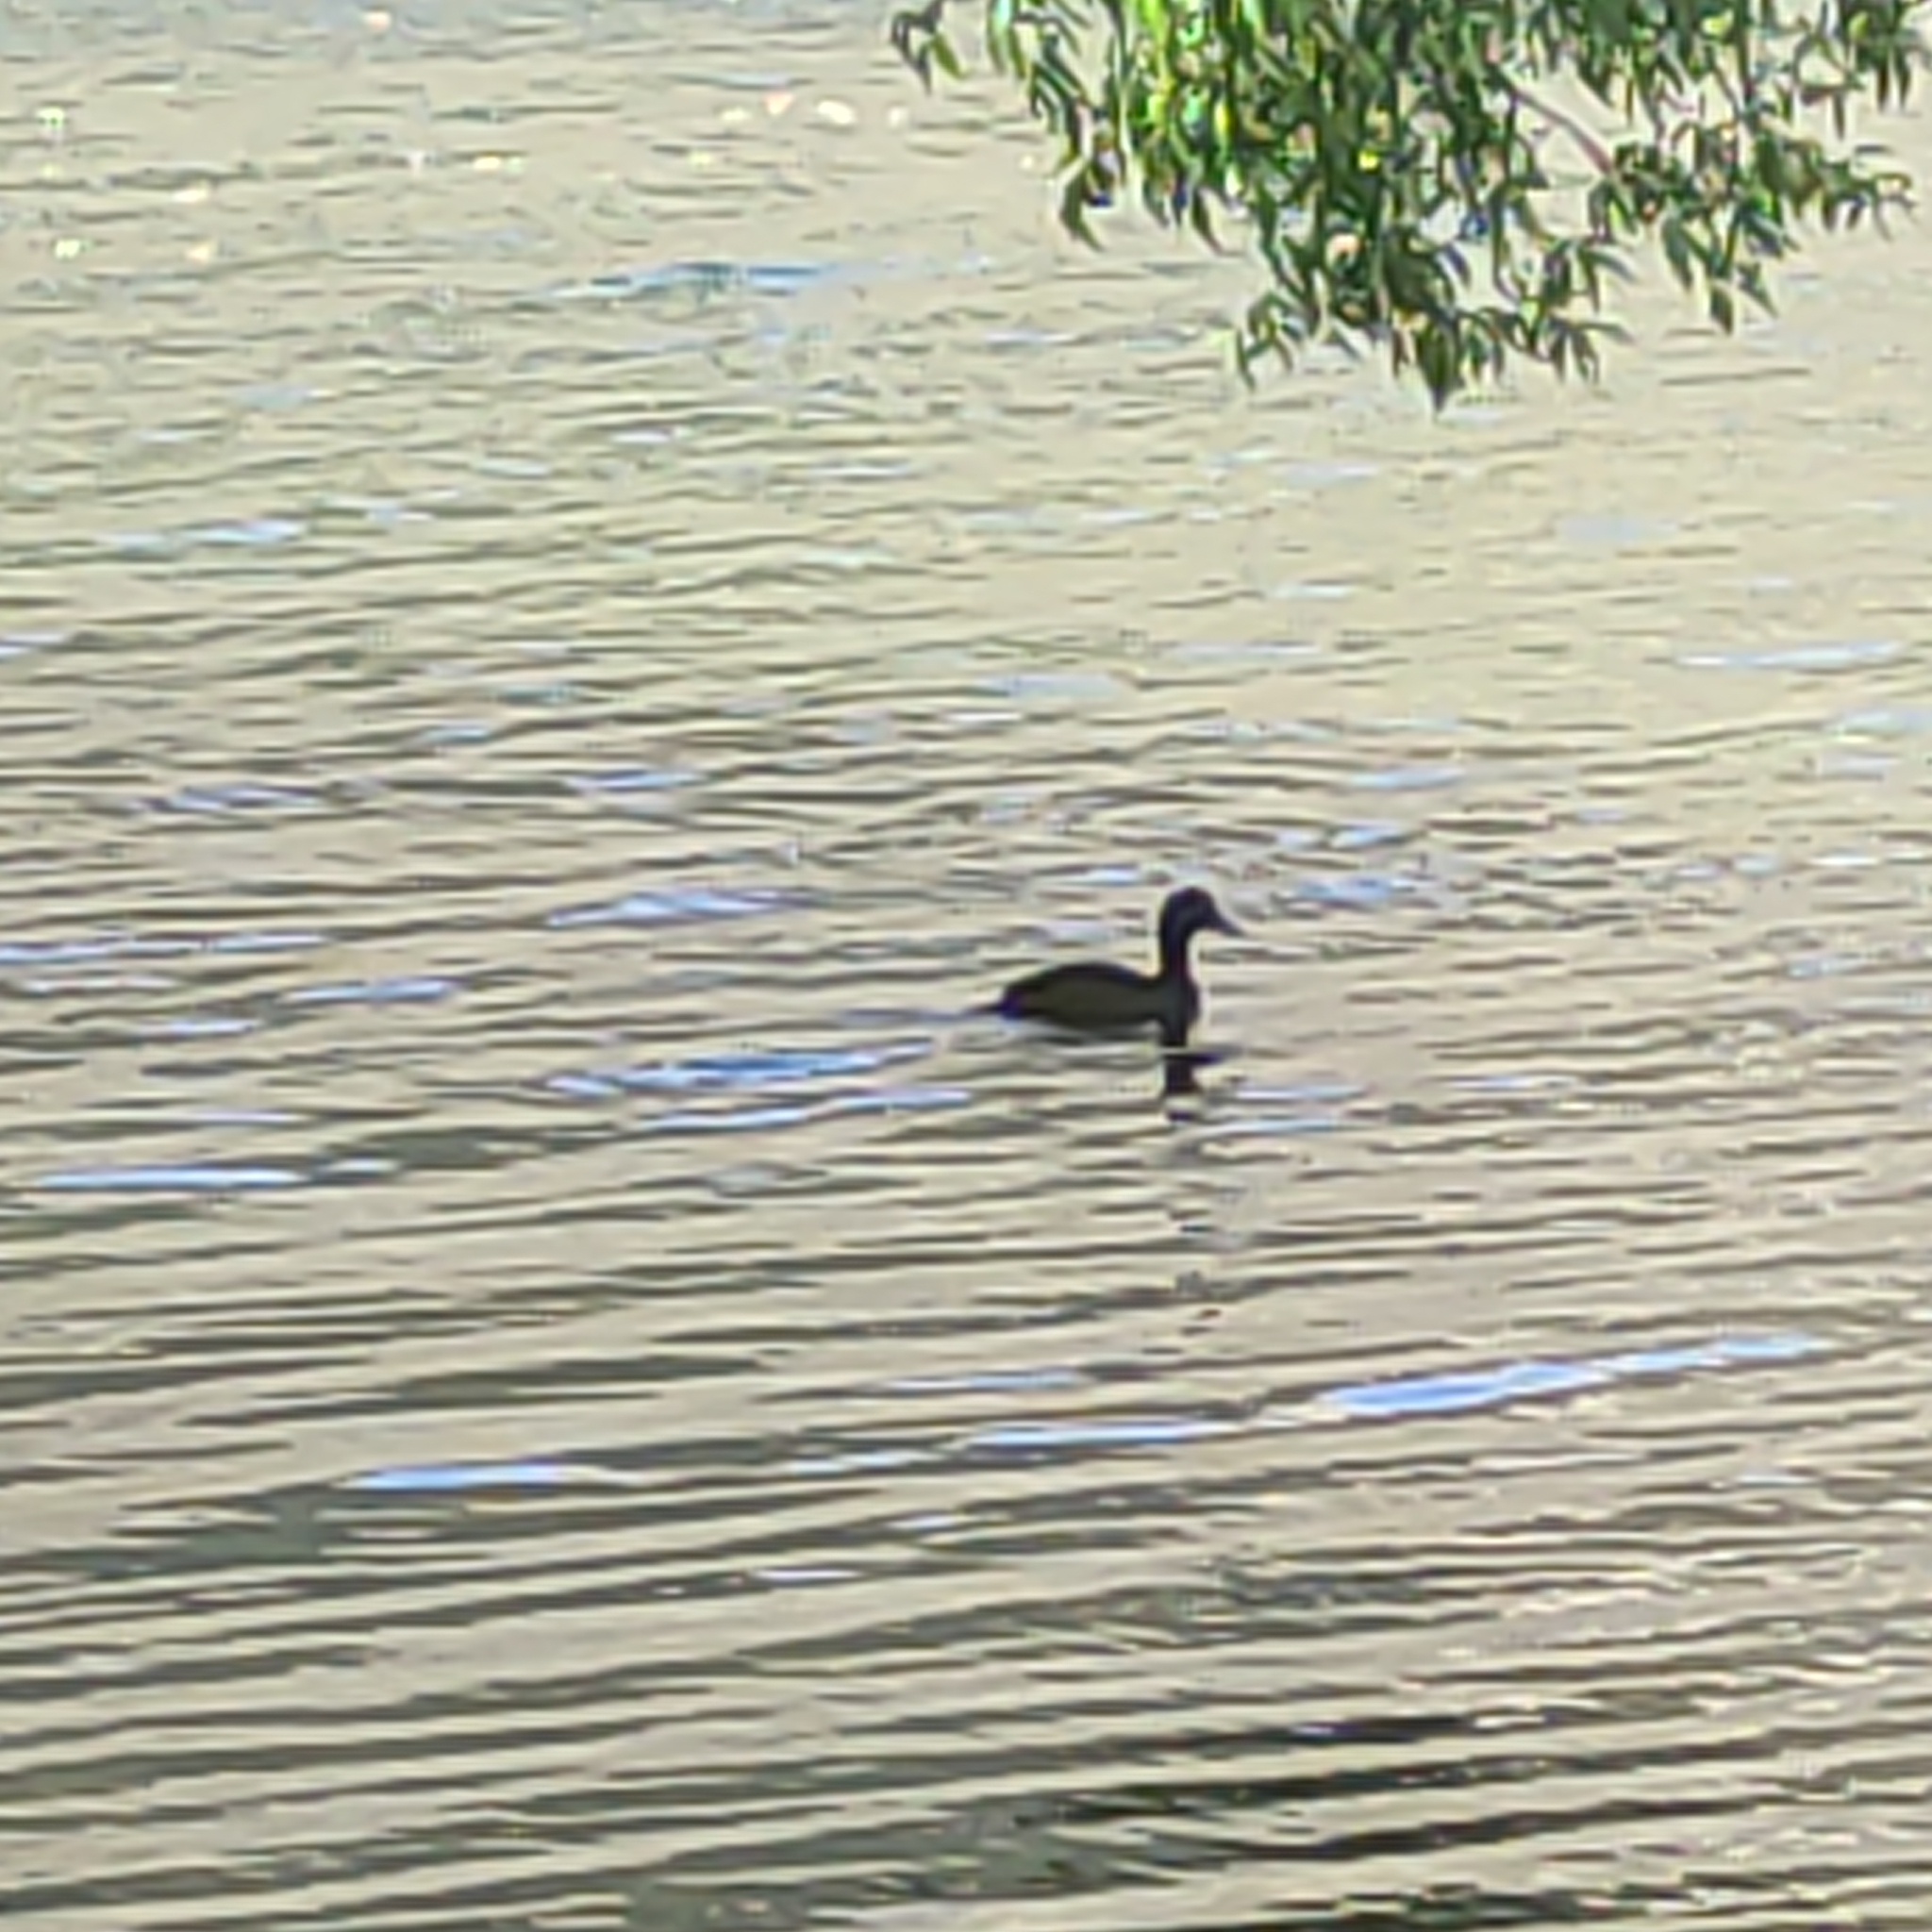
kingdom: Animalia
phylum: Chordata
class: Aves
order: Anseriformes
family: Anatidae
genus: Aythya
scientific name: Aythya novaeseelandiae
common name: New zealand scaup
